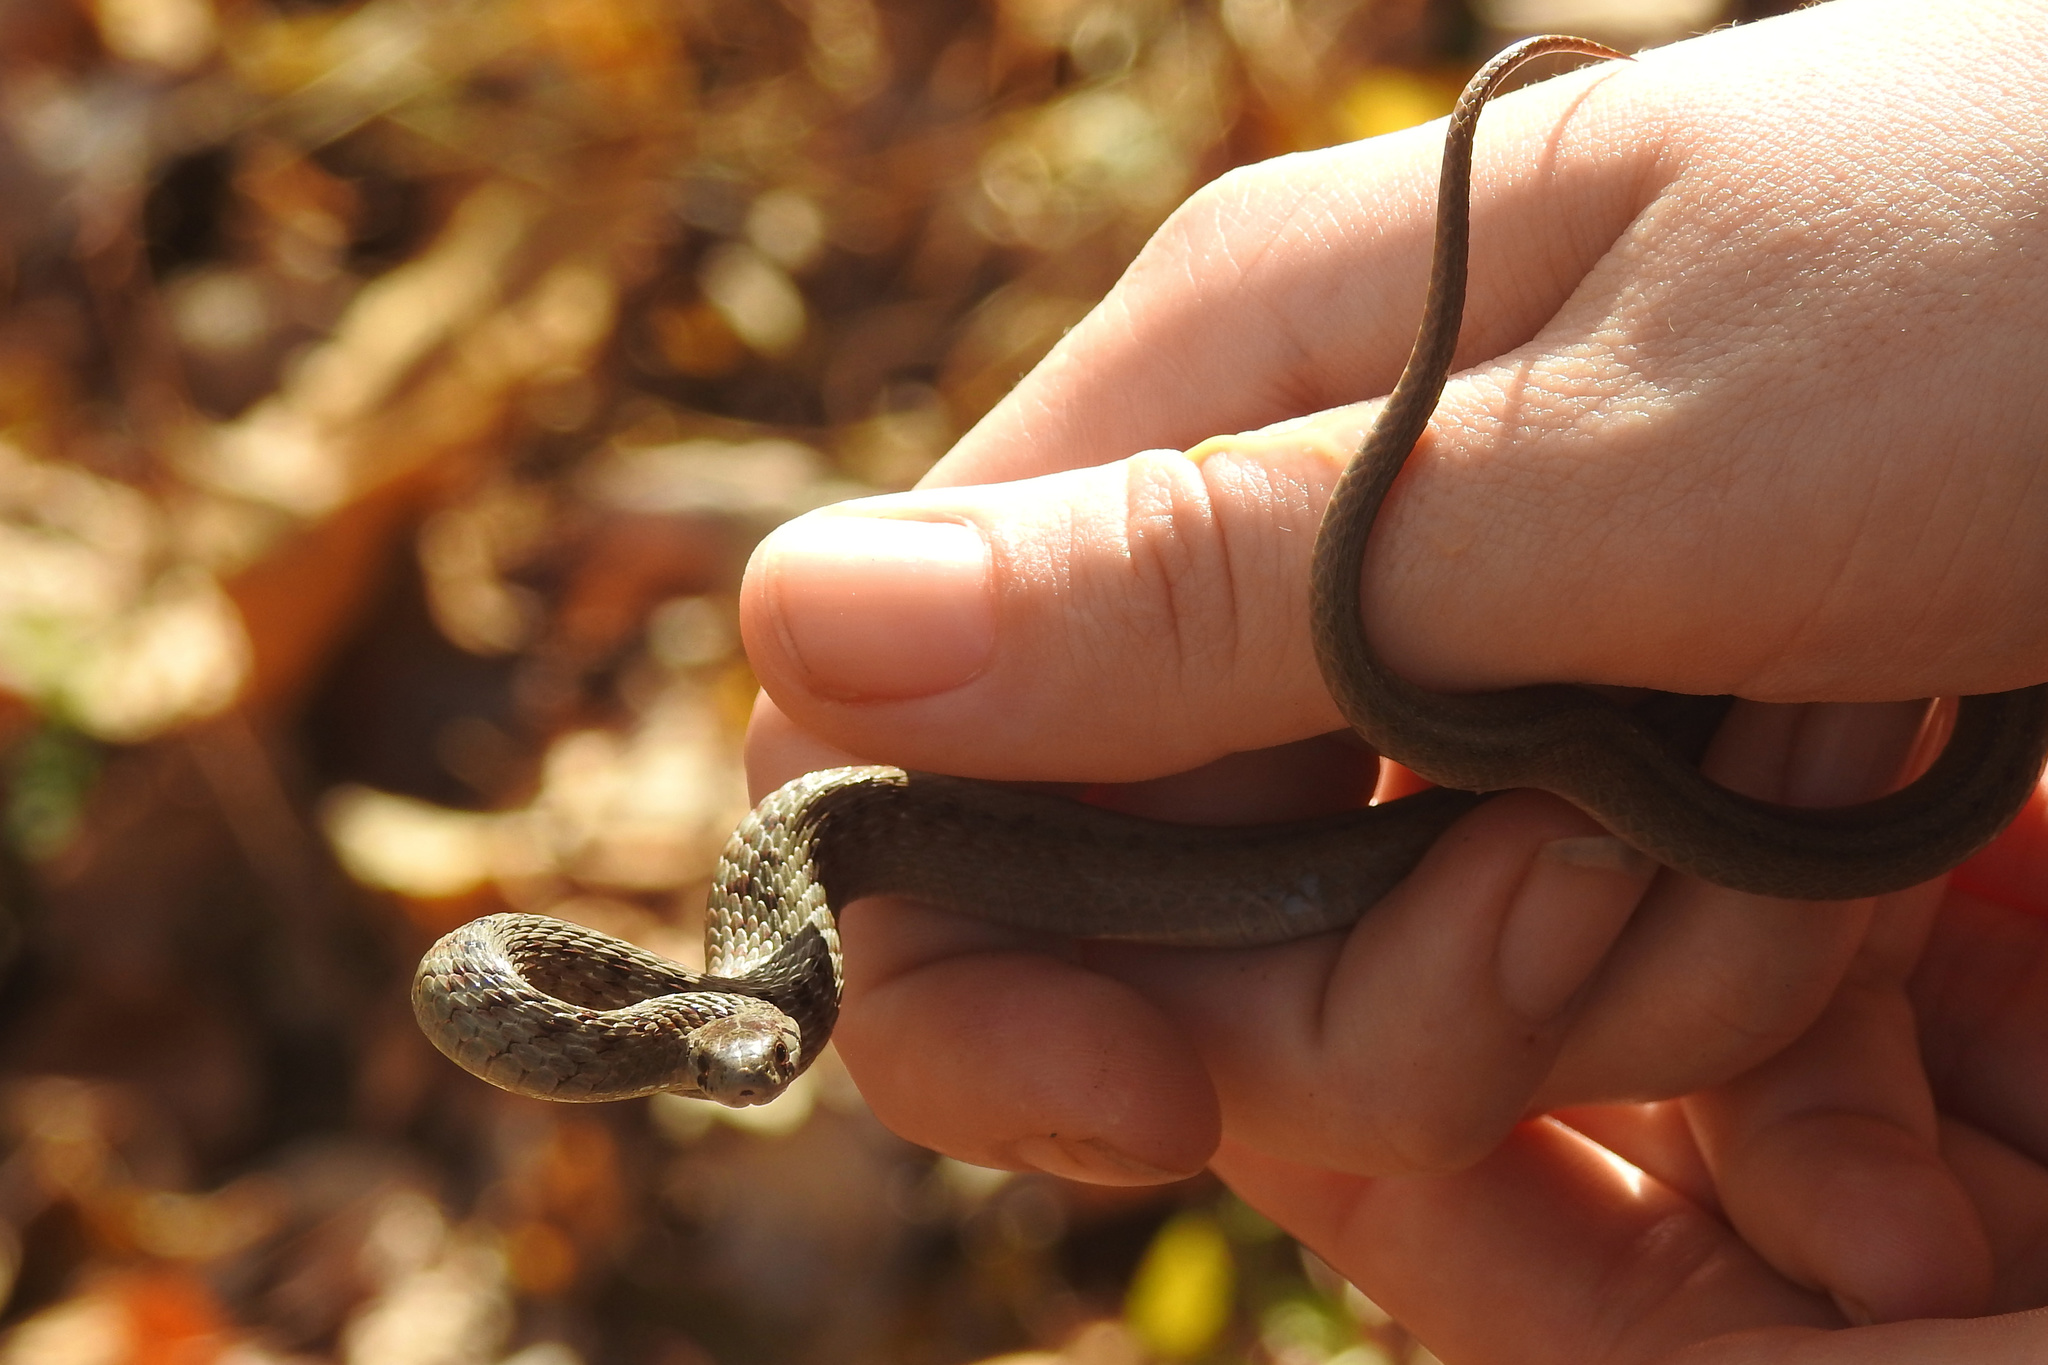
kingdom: Animalia
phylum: Chordata
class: Squamata
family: Colubridae
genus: Storeria
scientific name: Storeria dekayi
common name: (dekay’s) brown snake
